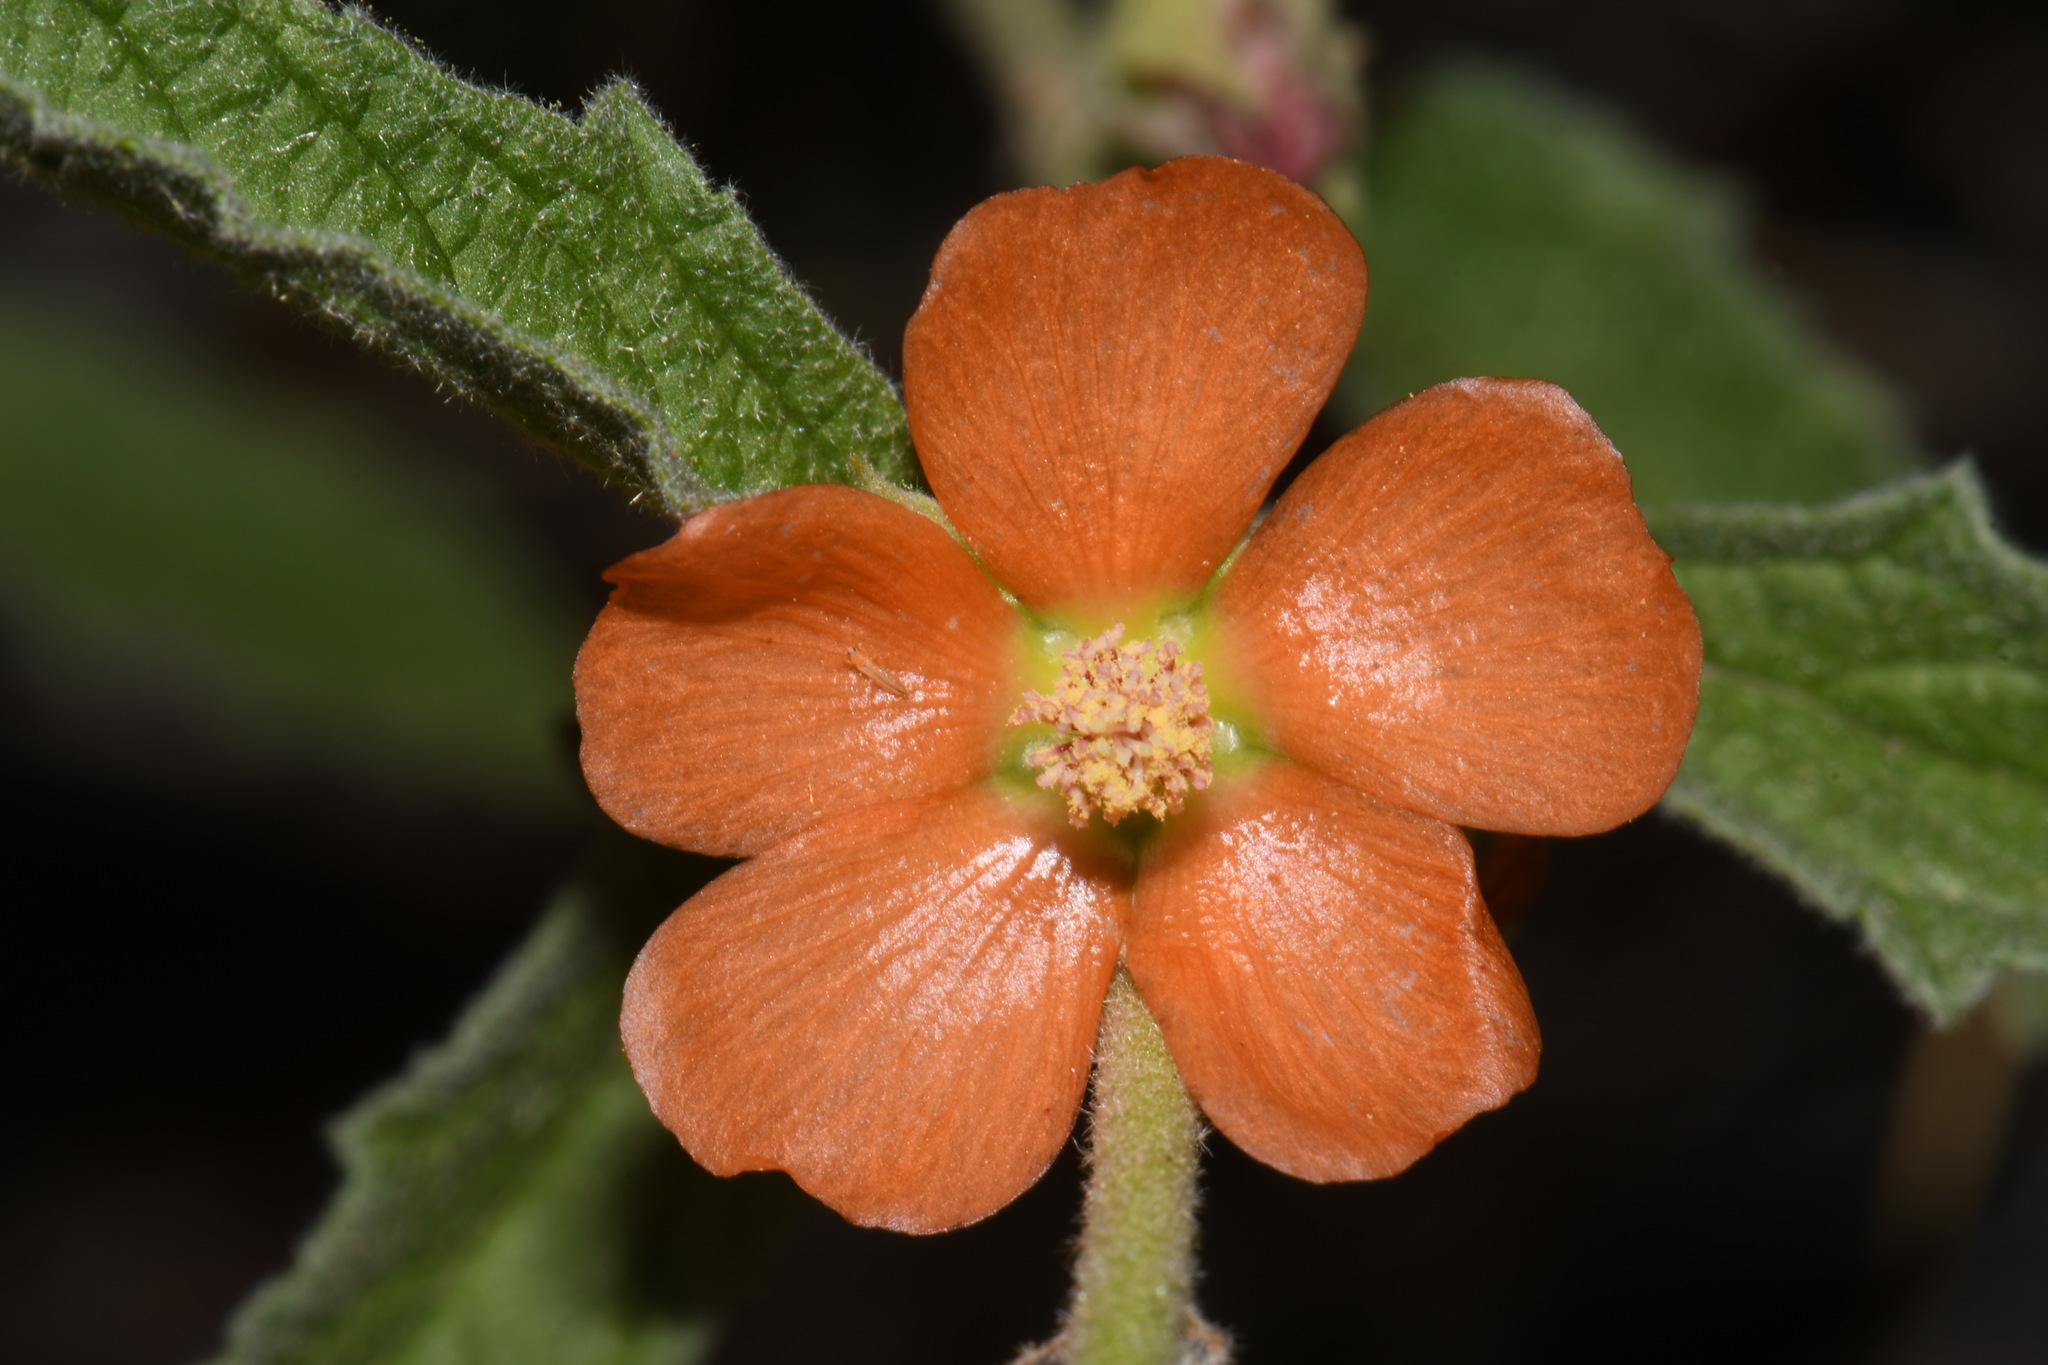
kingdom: Plantae
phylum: Tracheophyta
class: Magnoliopsida
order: Malvales
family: Malvaceae
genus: Sphaeralcea
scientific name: Sphaeralcea angustifolia
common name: Copper globe-mallow
